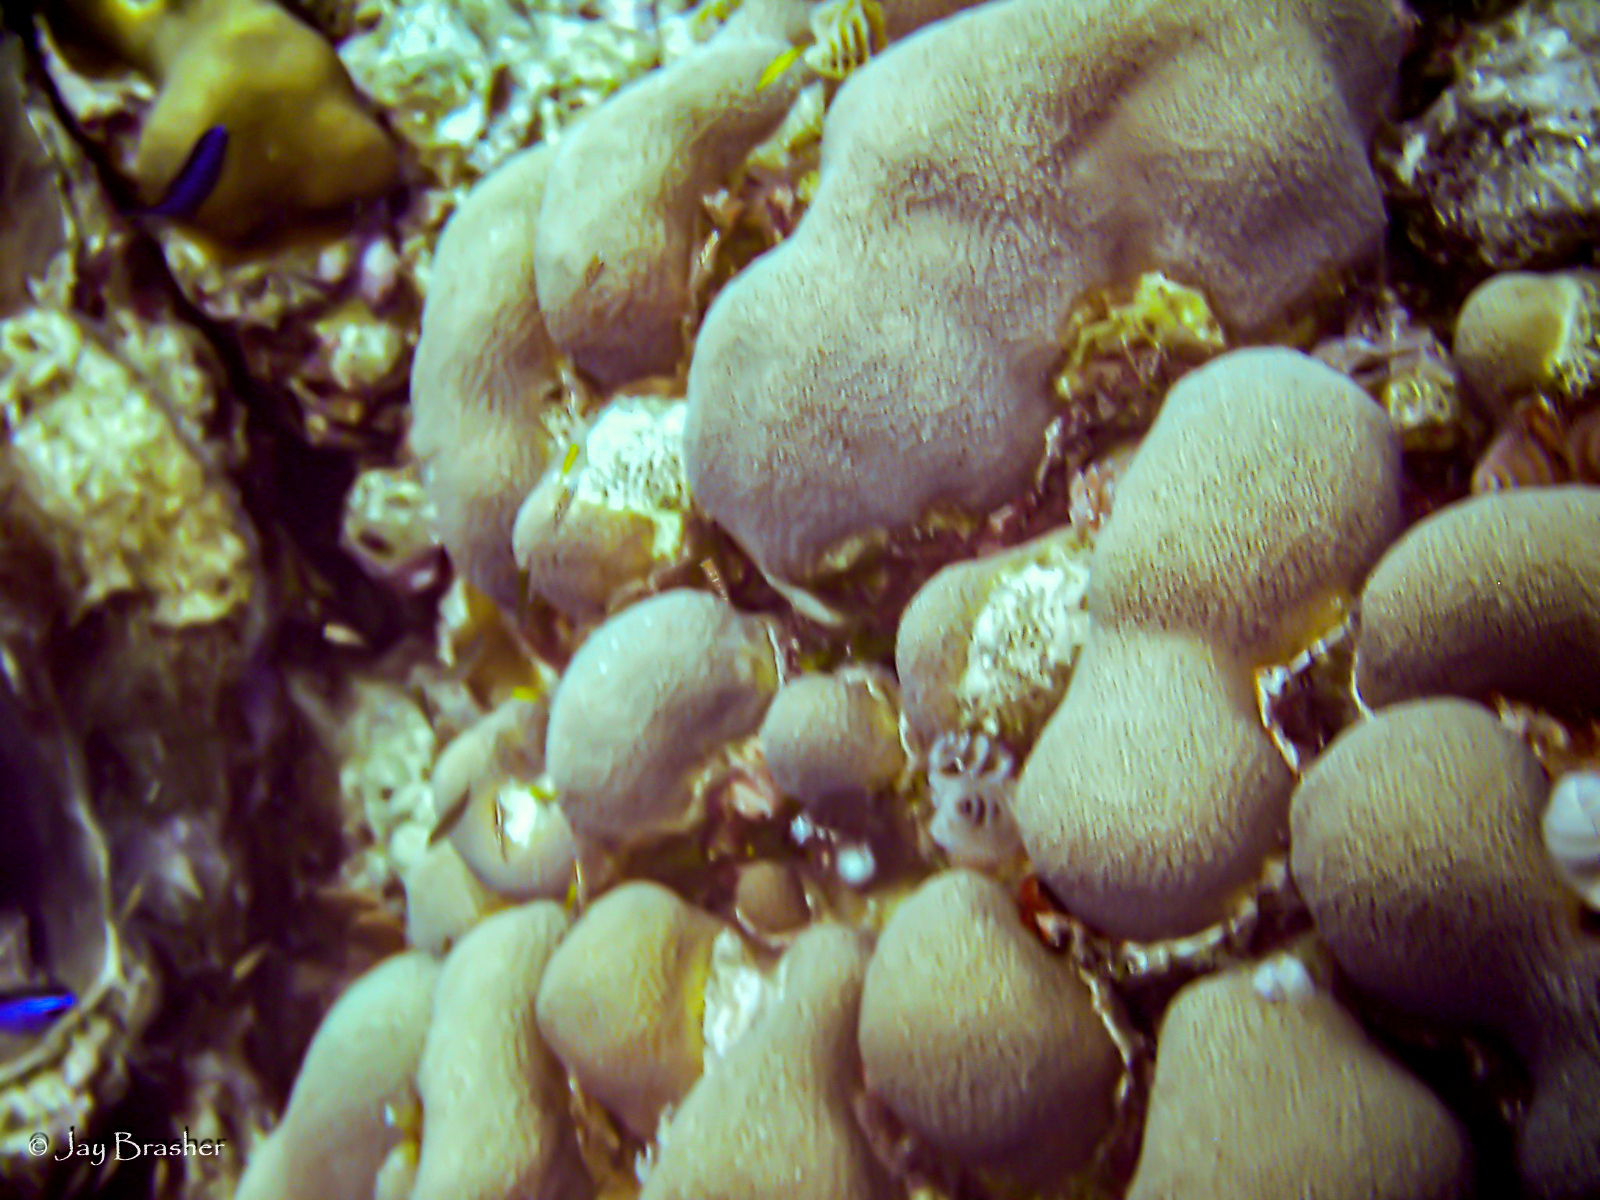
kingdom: Animalia
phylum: Cnidaria
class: Anthozoa
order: Scleractinia
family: Merulinidae
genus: Orbicella
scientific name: Orbicella annularis
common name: Boulder star coral
